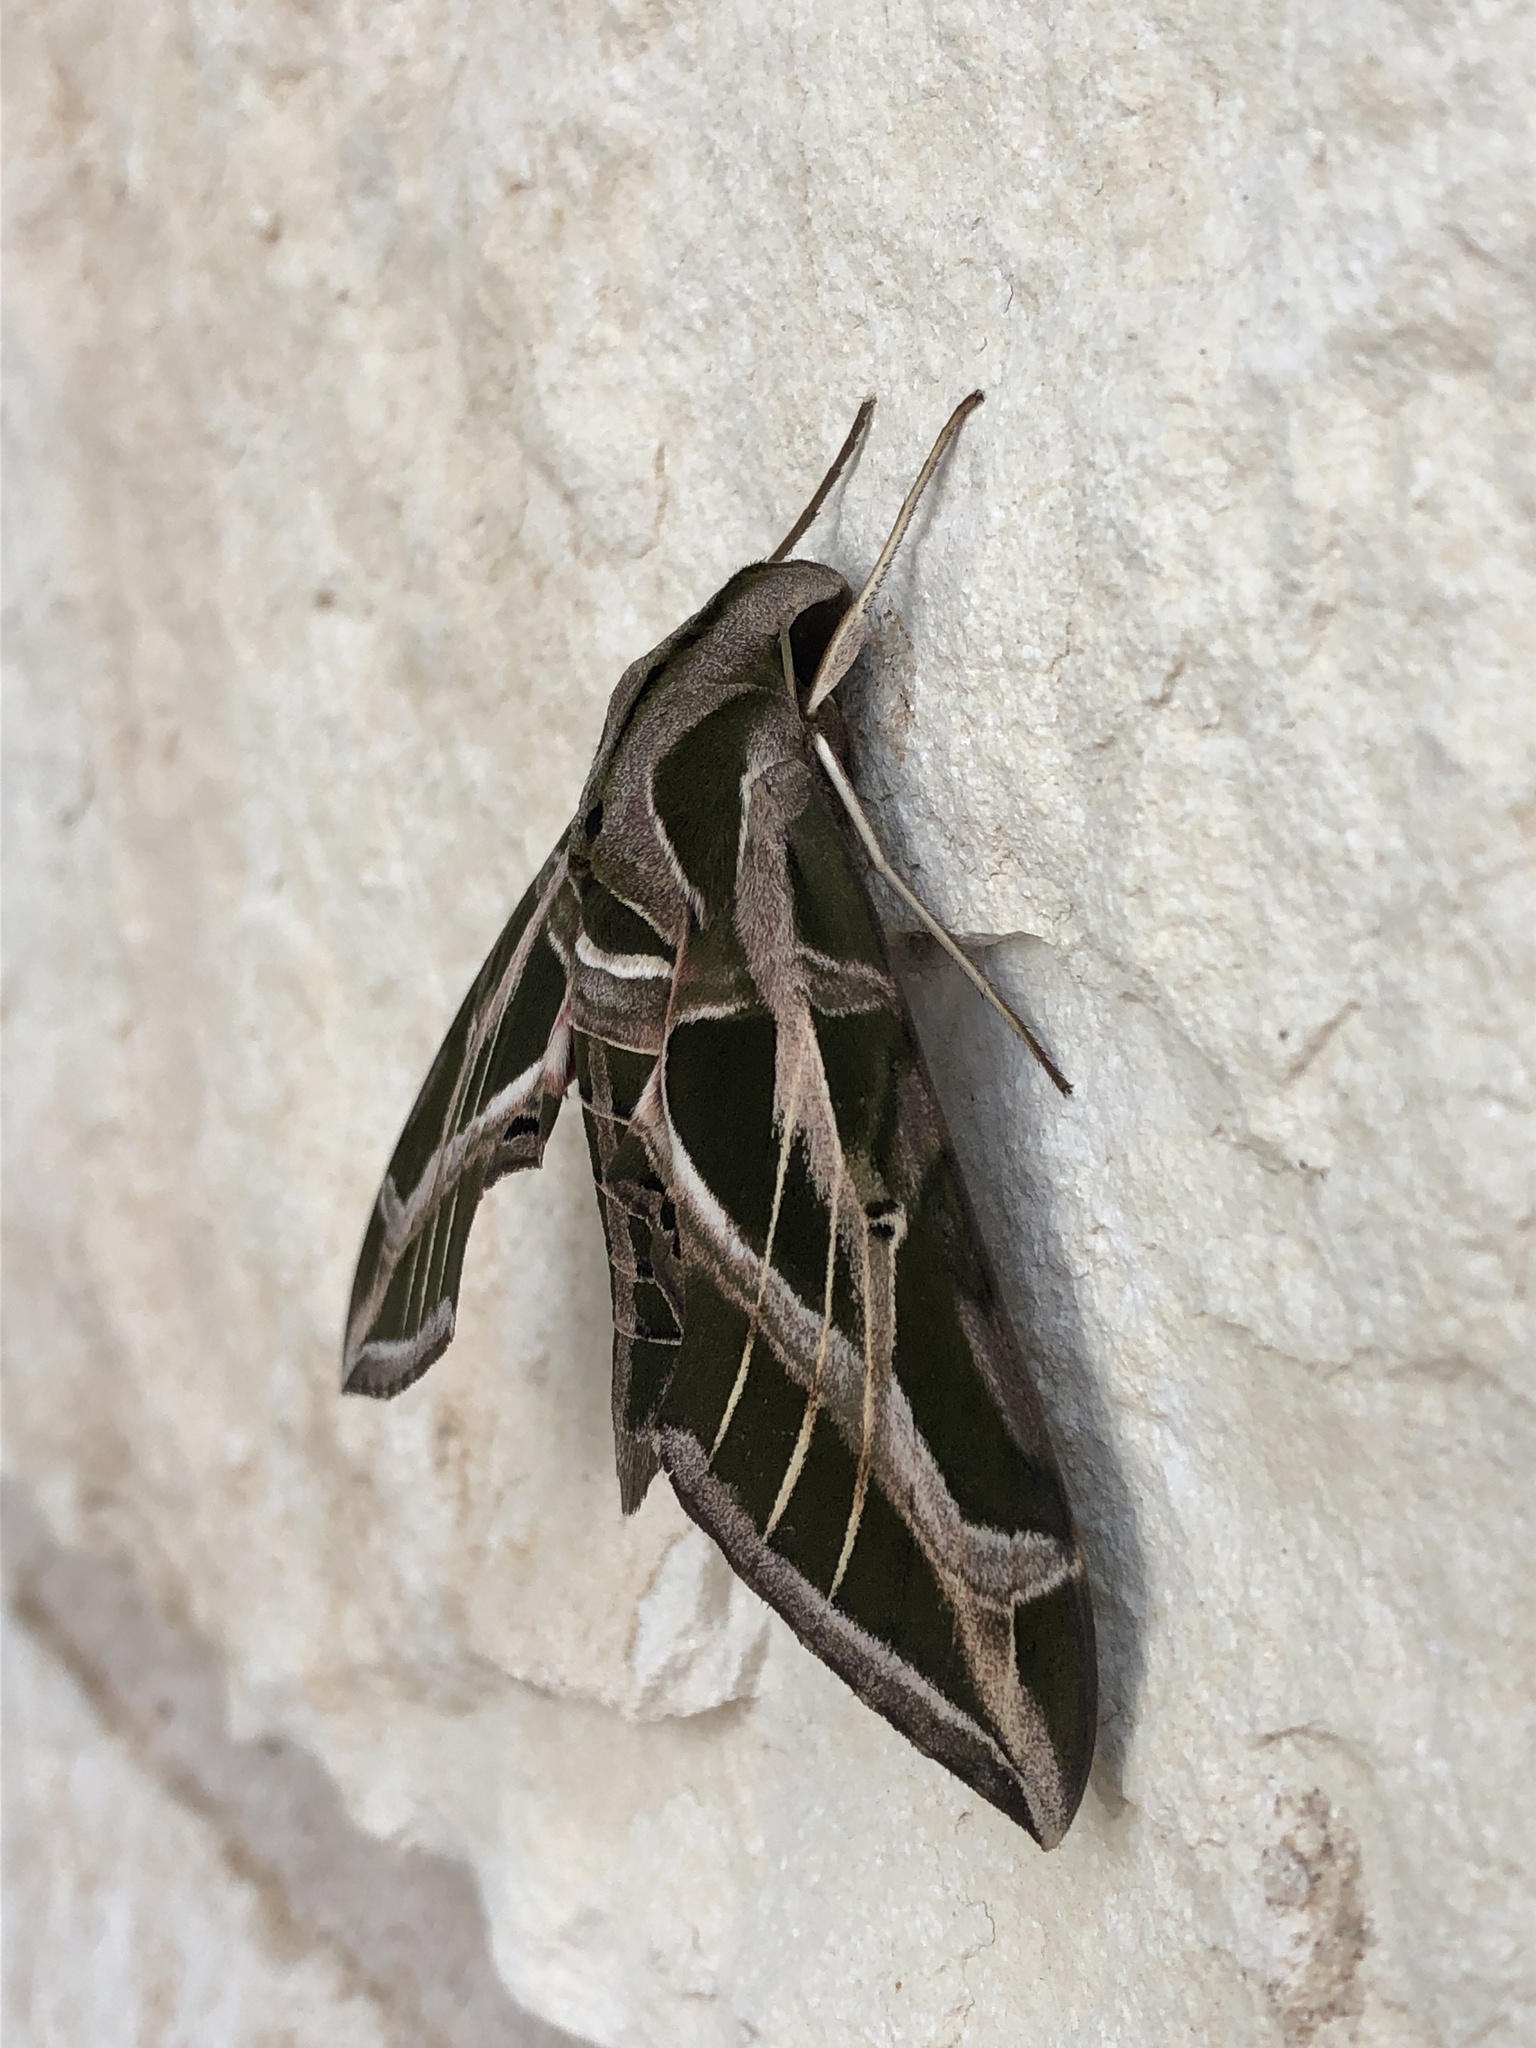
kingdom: Animalia
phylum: Arthropoda
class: Insecta
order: Lepidoptera
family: Sphingidae
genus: Eumorpha
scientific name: Eumorpha vitis
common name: Vine sphinx
